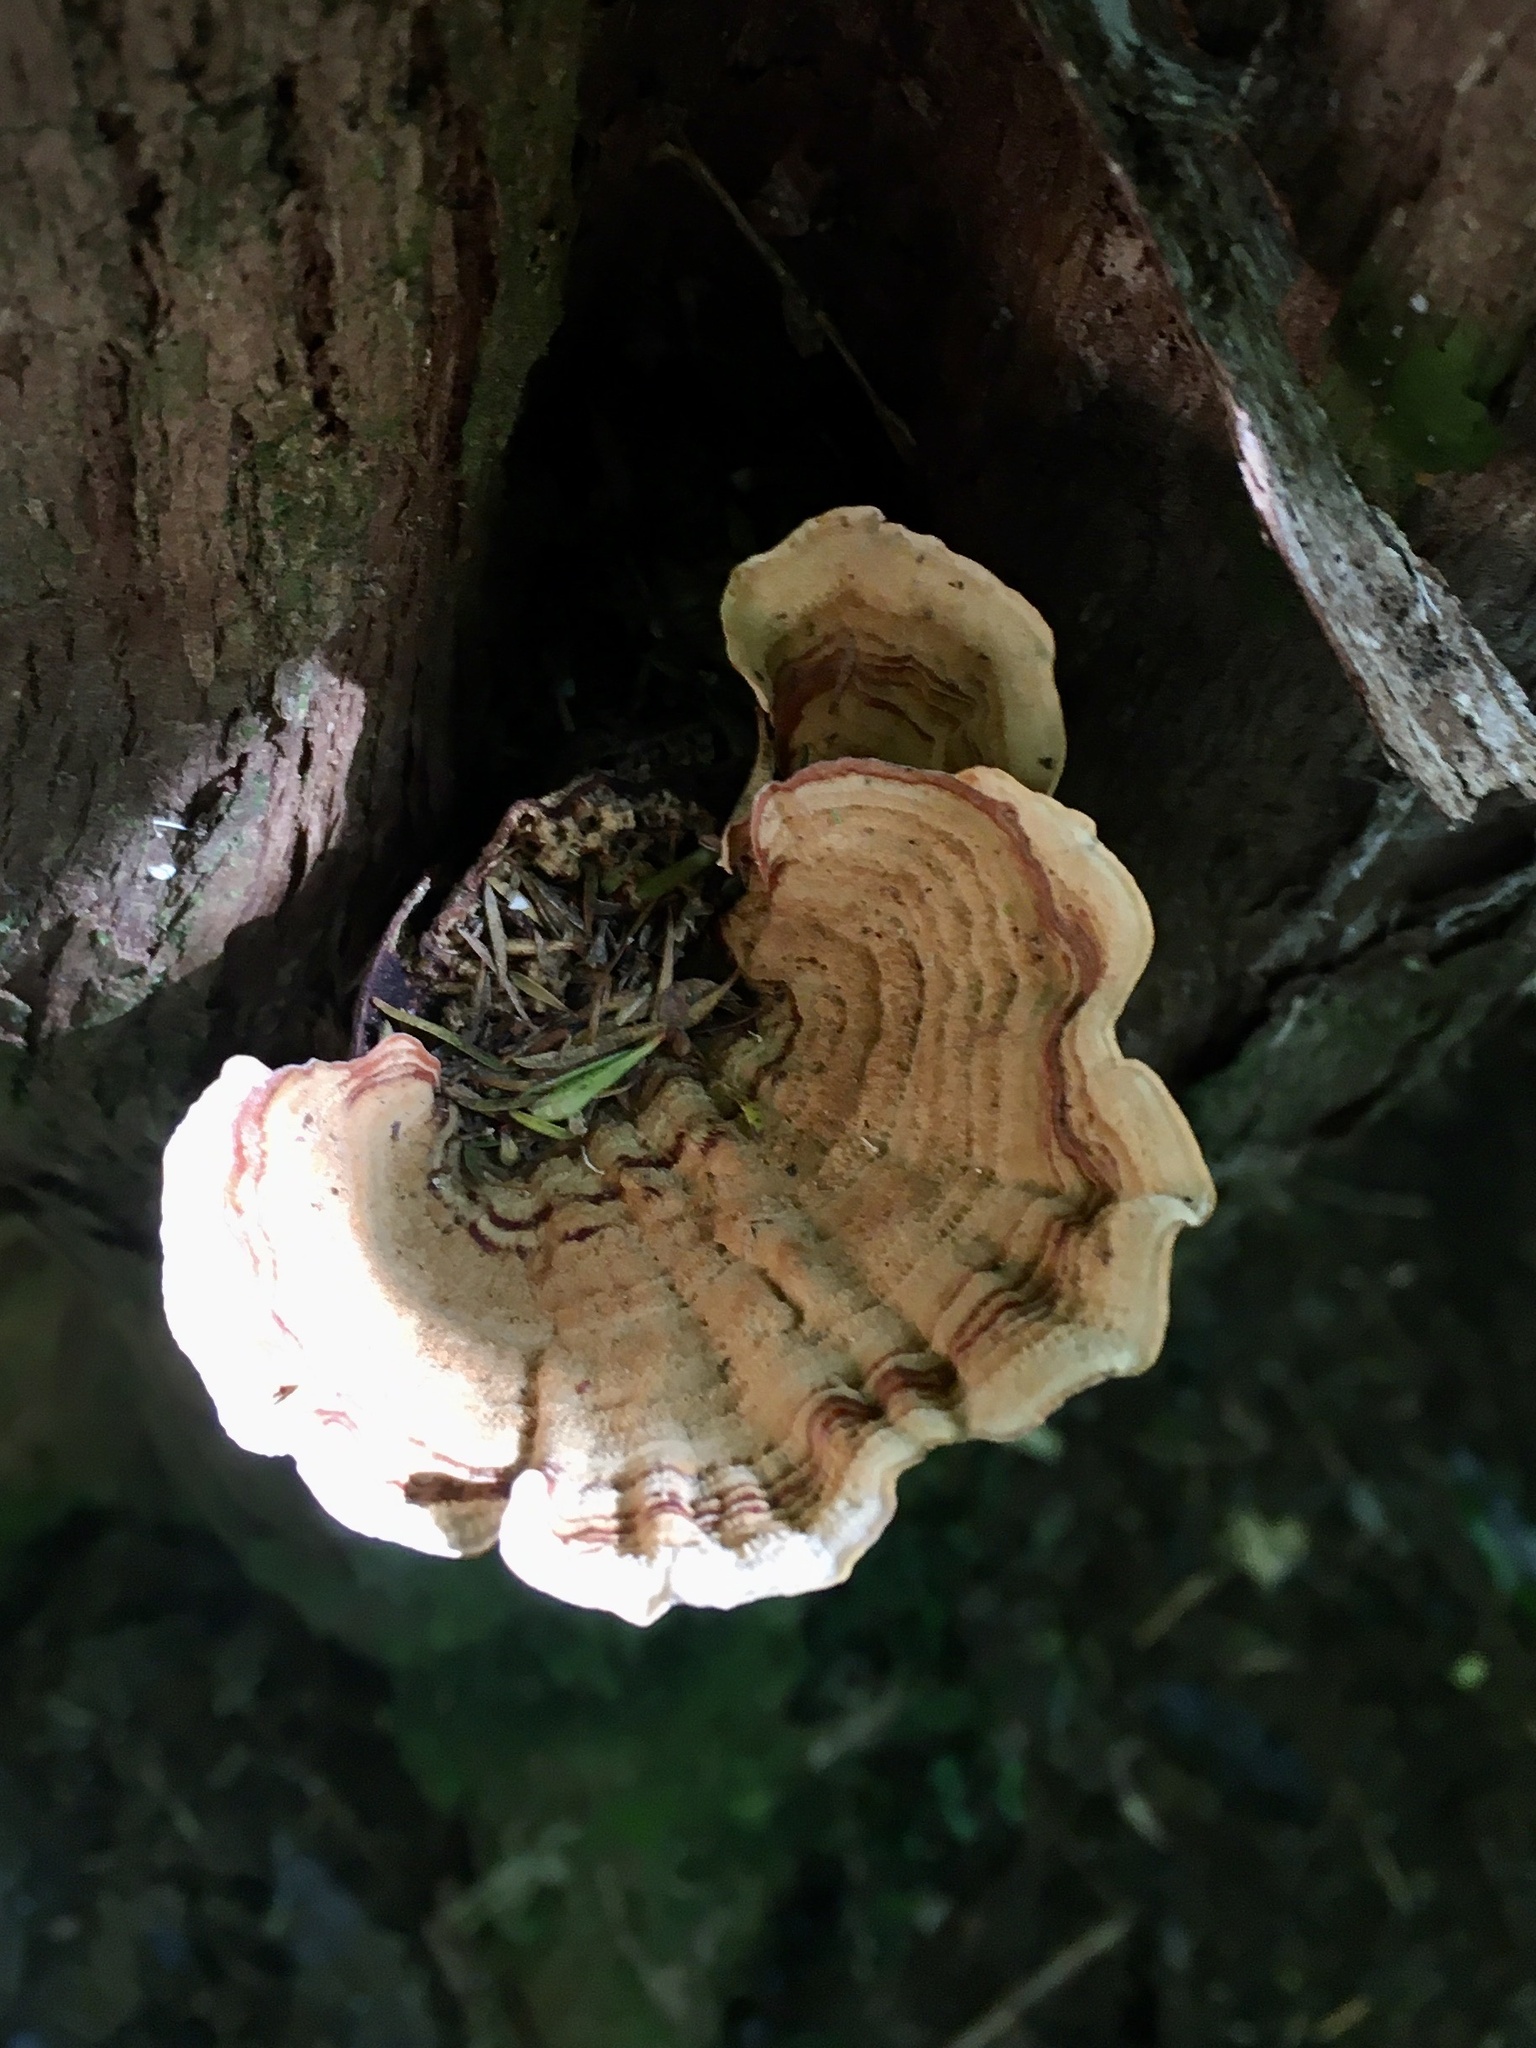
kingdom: Fungi
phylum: Basidiomycota
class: Agaricomycetes
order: Russulales
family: Stereaceae
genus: Stereum
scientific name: Stereum versicolor
